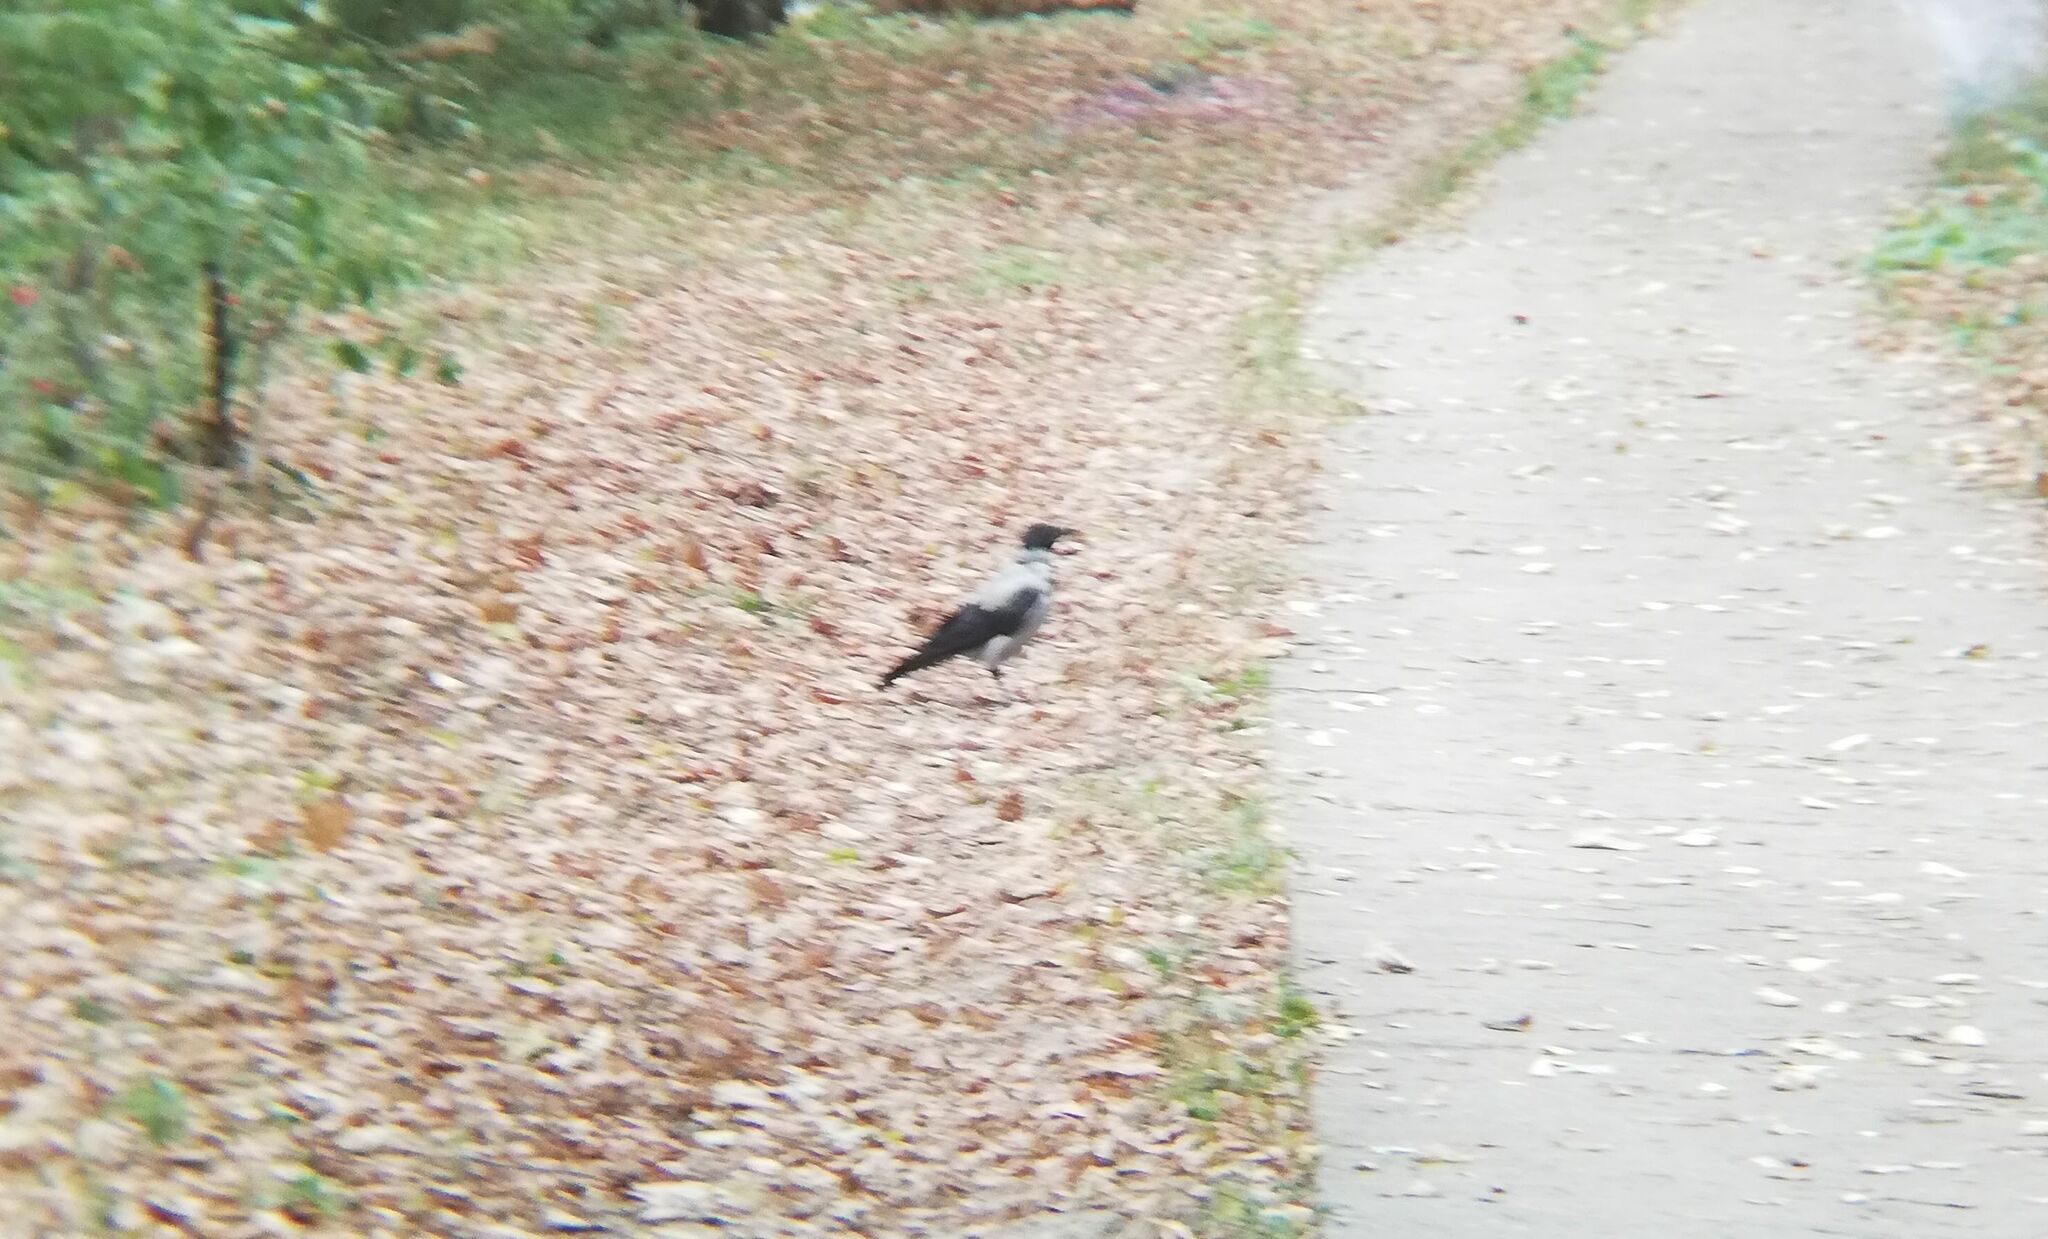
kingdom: Animalia
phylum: Chordata
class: Aves
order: Passeriformes
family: Corvidae
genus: Corvus
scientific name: Corvus cornix
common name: Hooded crow
